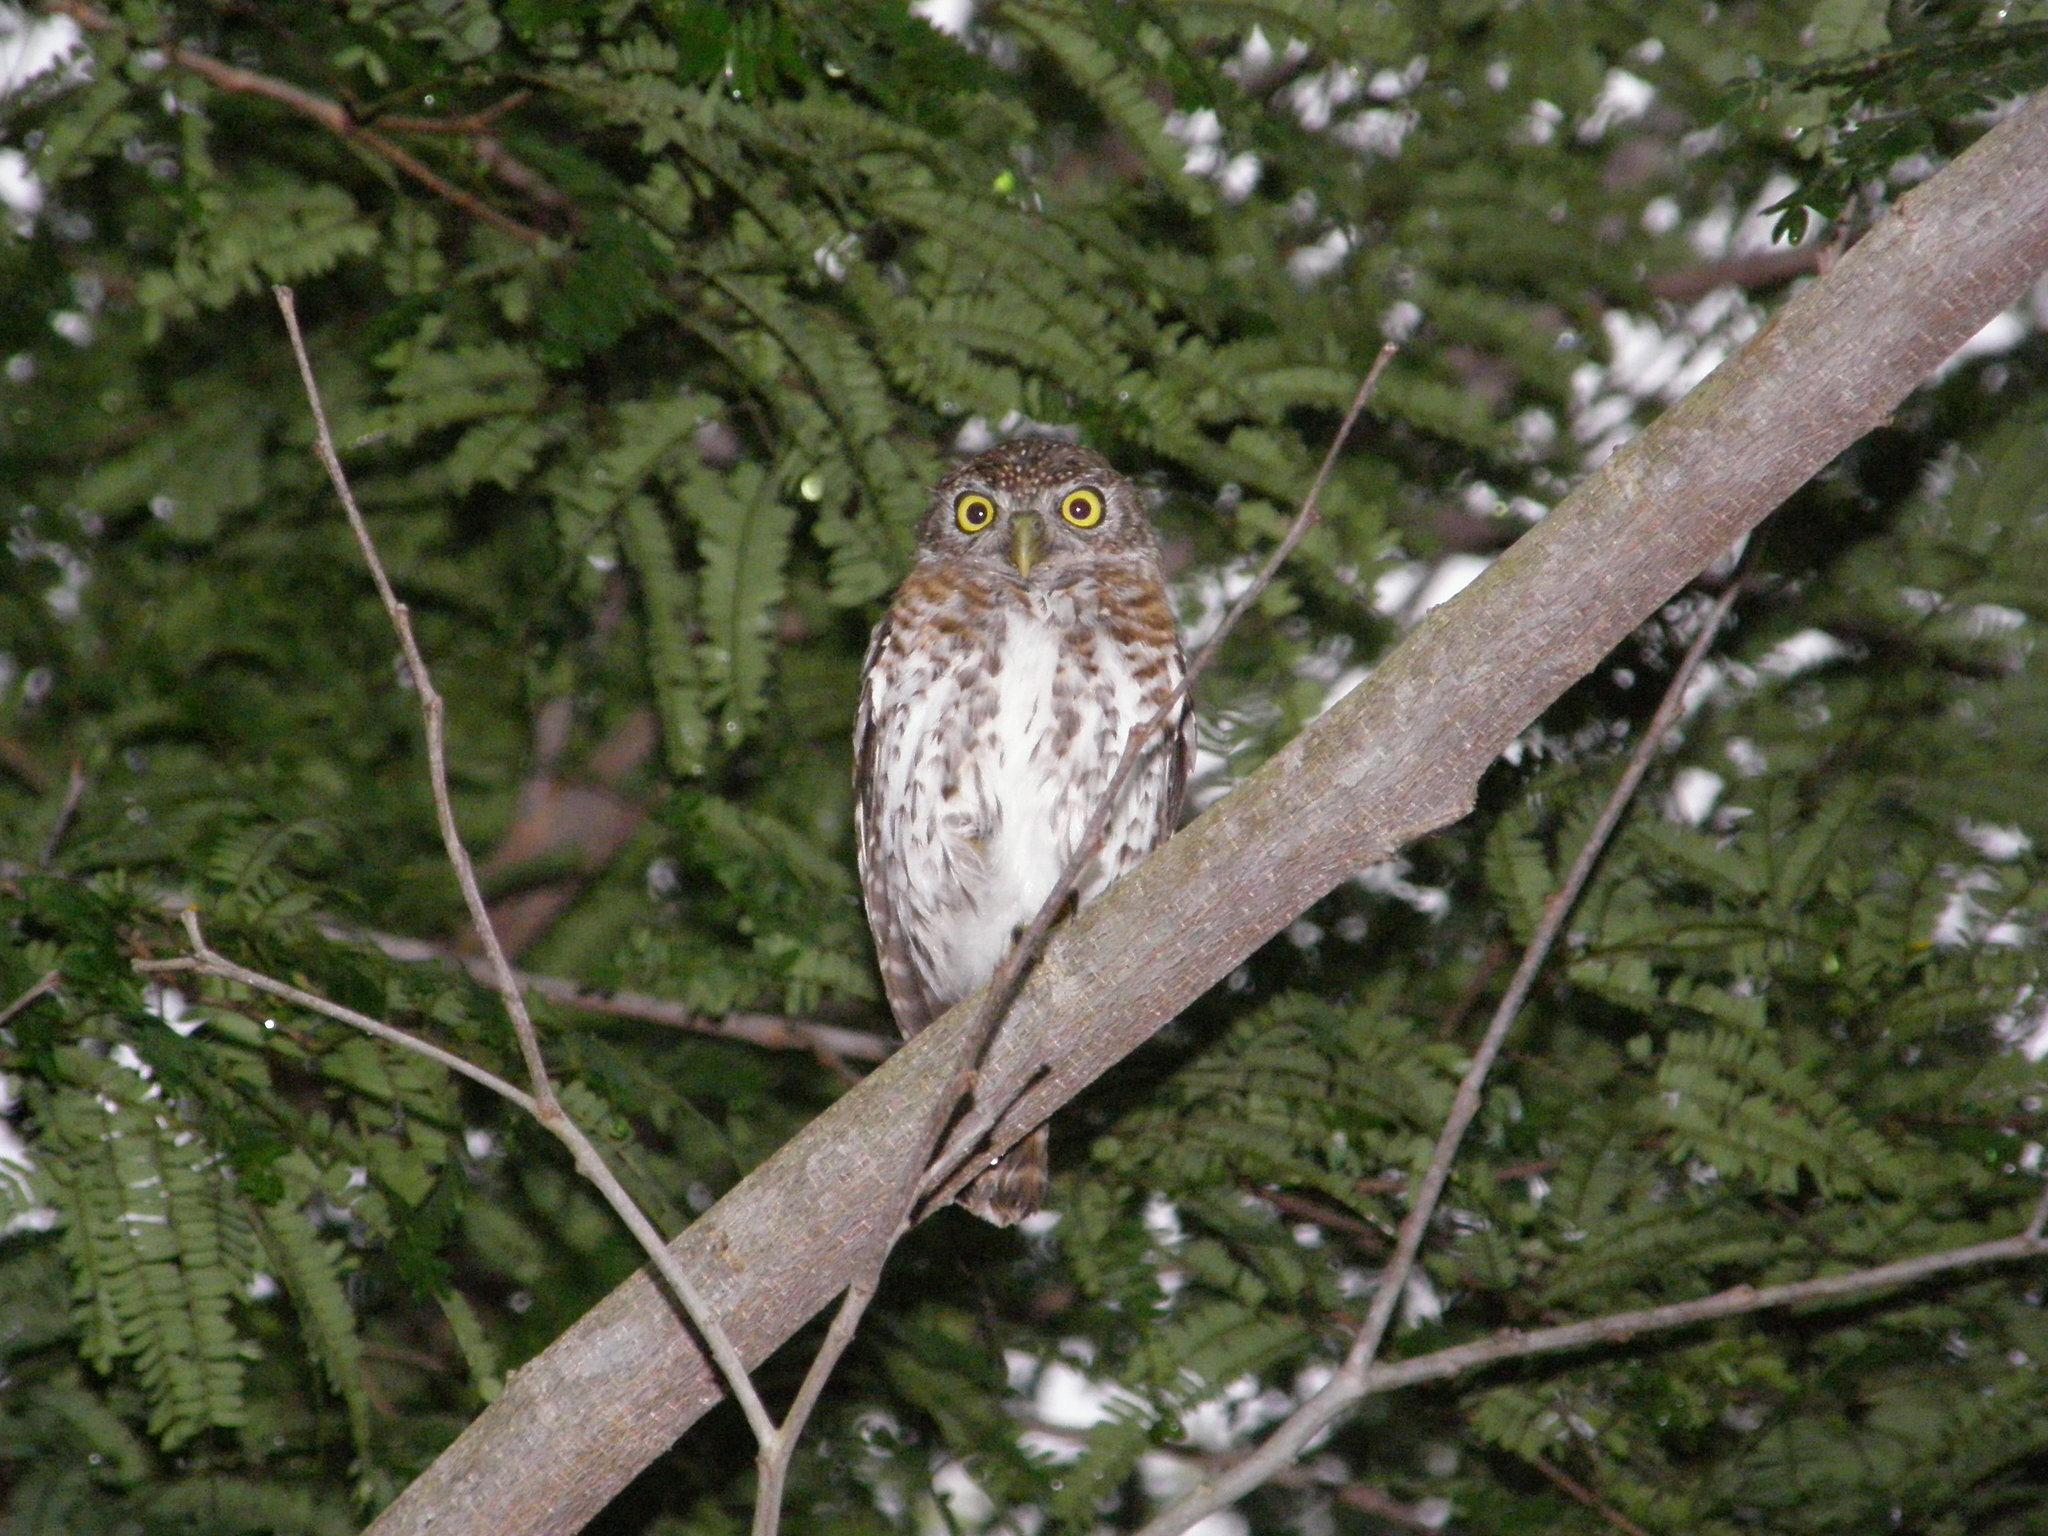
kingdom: Animalia
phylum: Chordata
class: Aves
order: Strigiformes
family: Strigidae
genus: Glaucidium
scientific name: Glaucidium siju
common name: Cuban pygmy-owl
